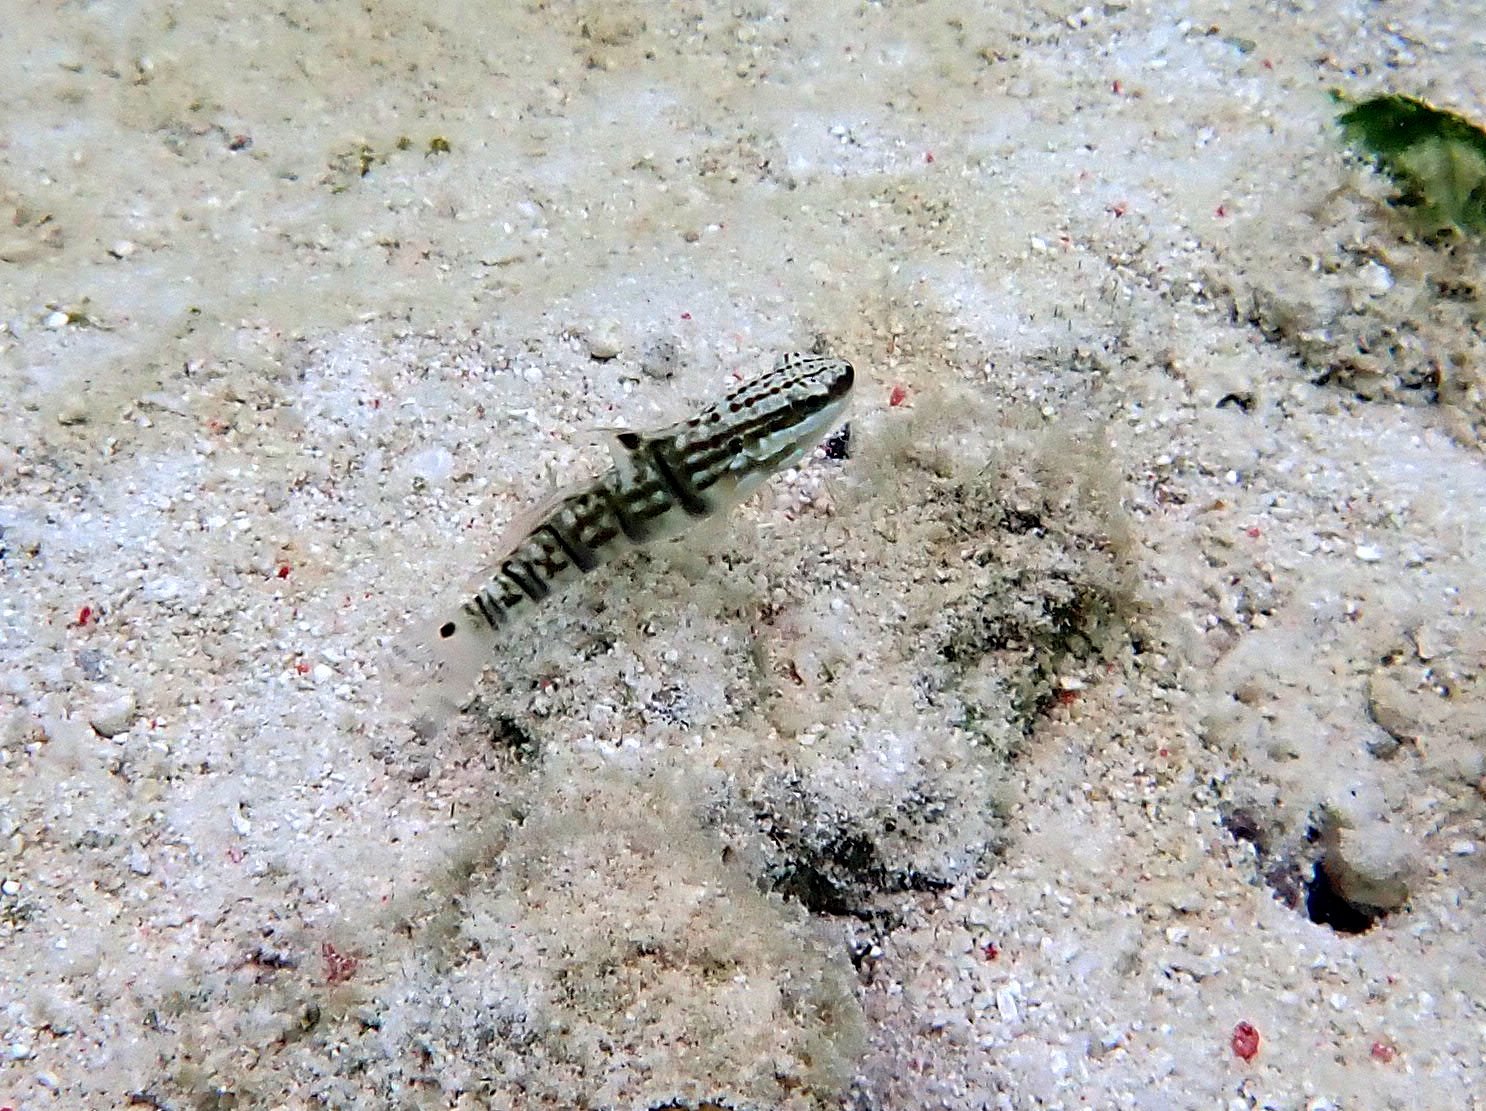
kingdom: Animalia
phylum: Chordata
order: Perciformes
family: Gobiidae
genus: Amblygobius
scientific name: Amblygobius phalaena
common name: Banded goby
